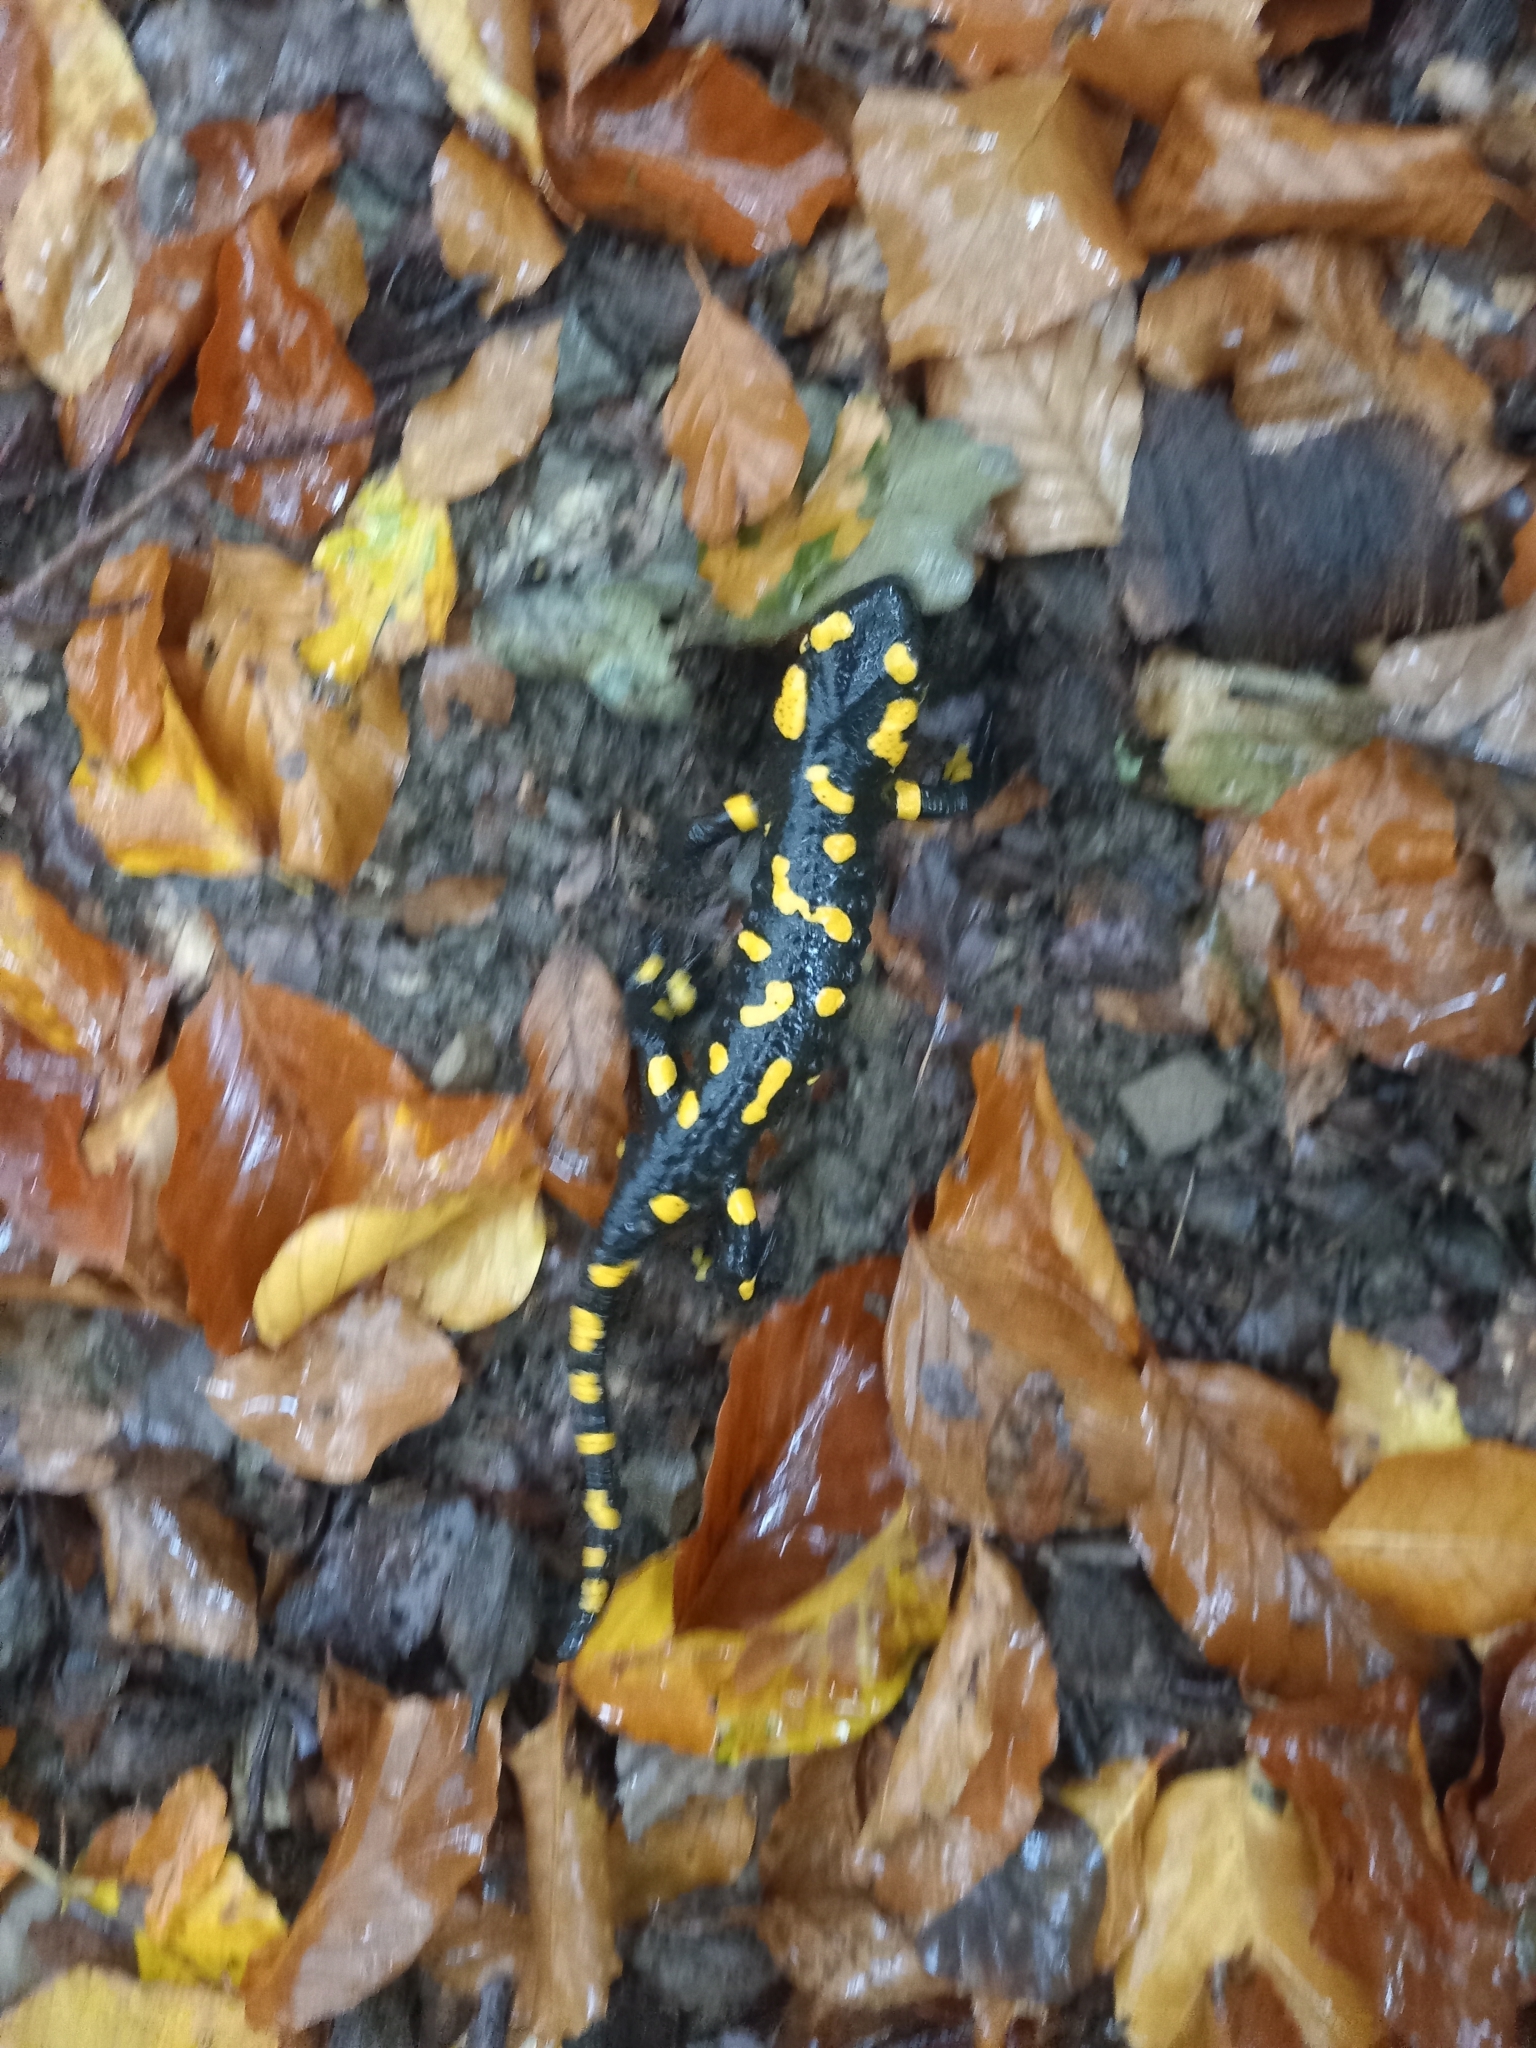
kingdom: Animalia
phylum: Chordata
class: Amphibia
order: Caudata
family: Salamandridae
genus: Salamandra
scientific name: Salamandra salamandra
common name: Fire salamander
